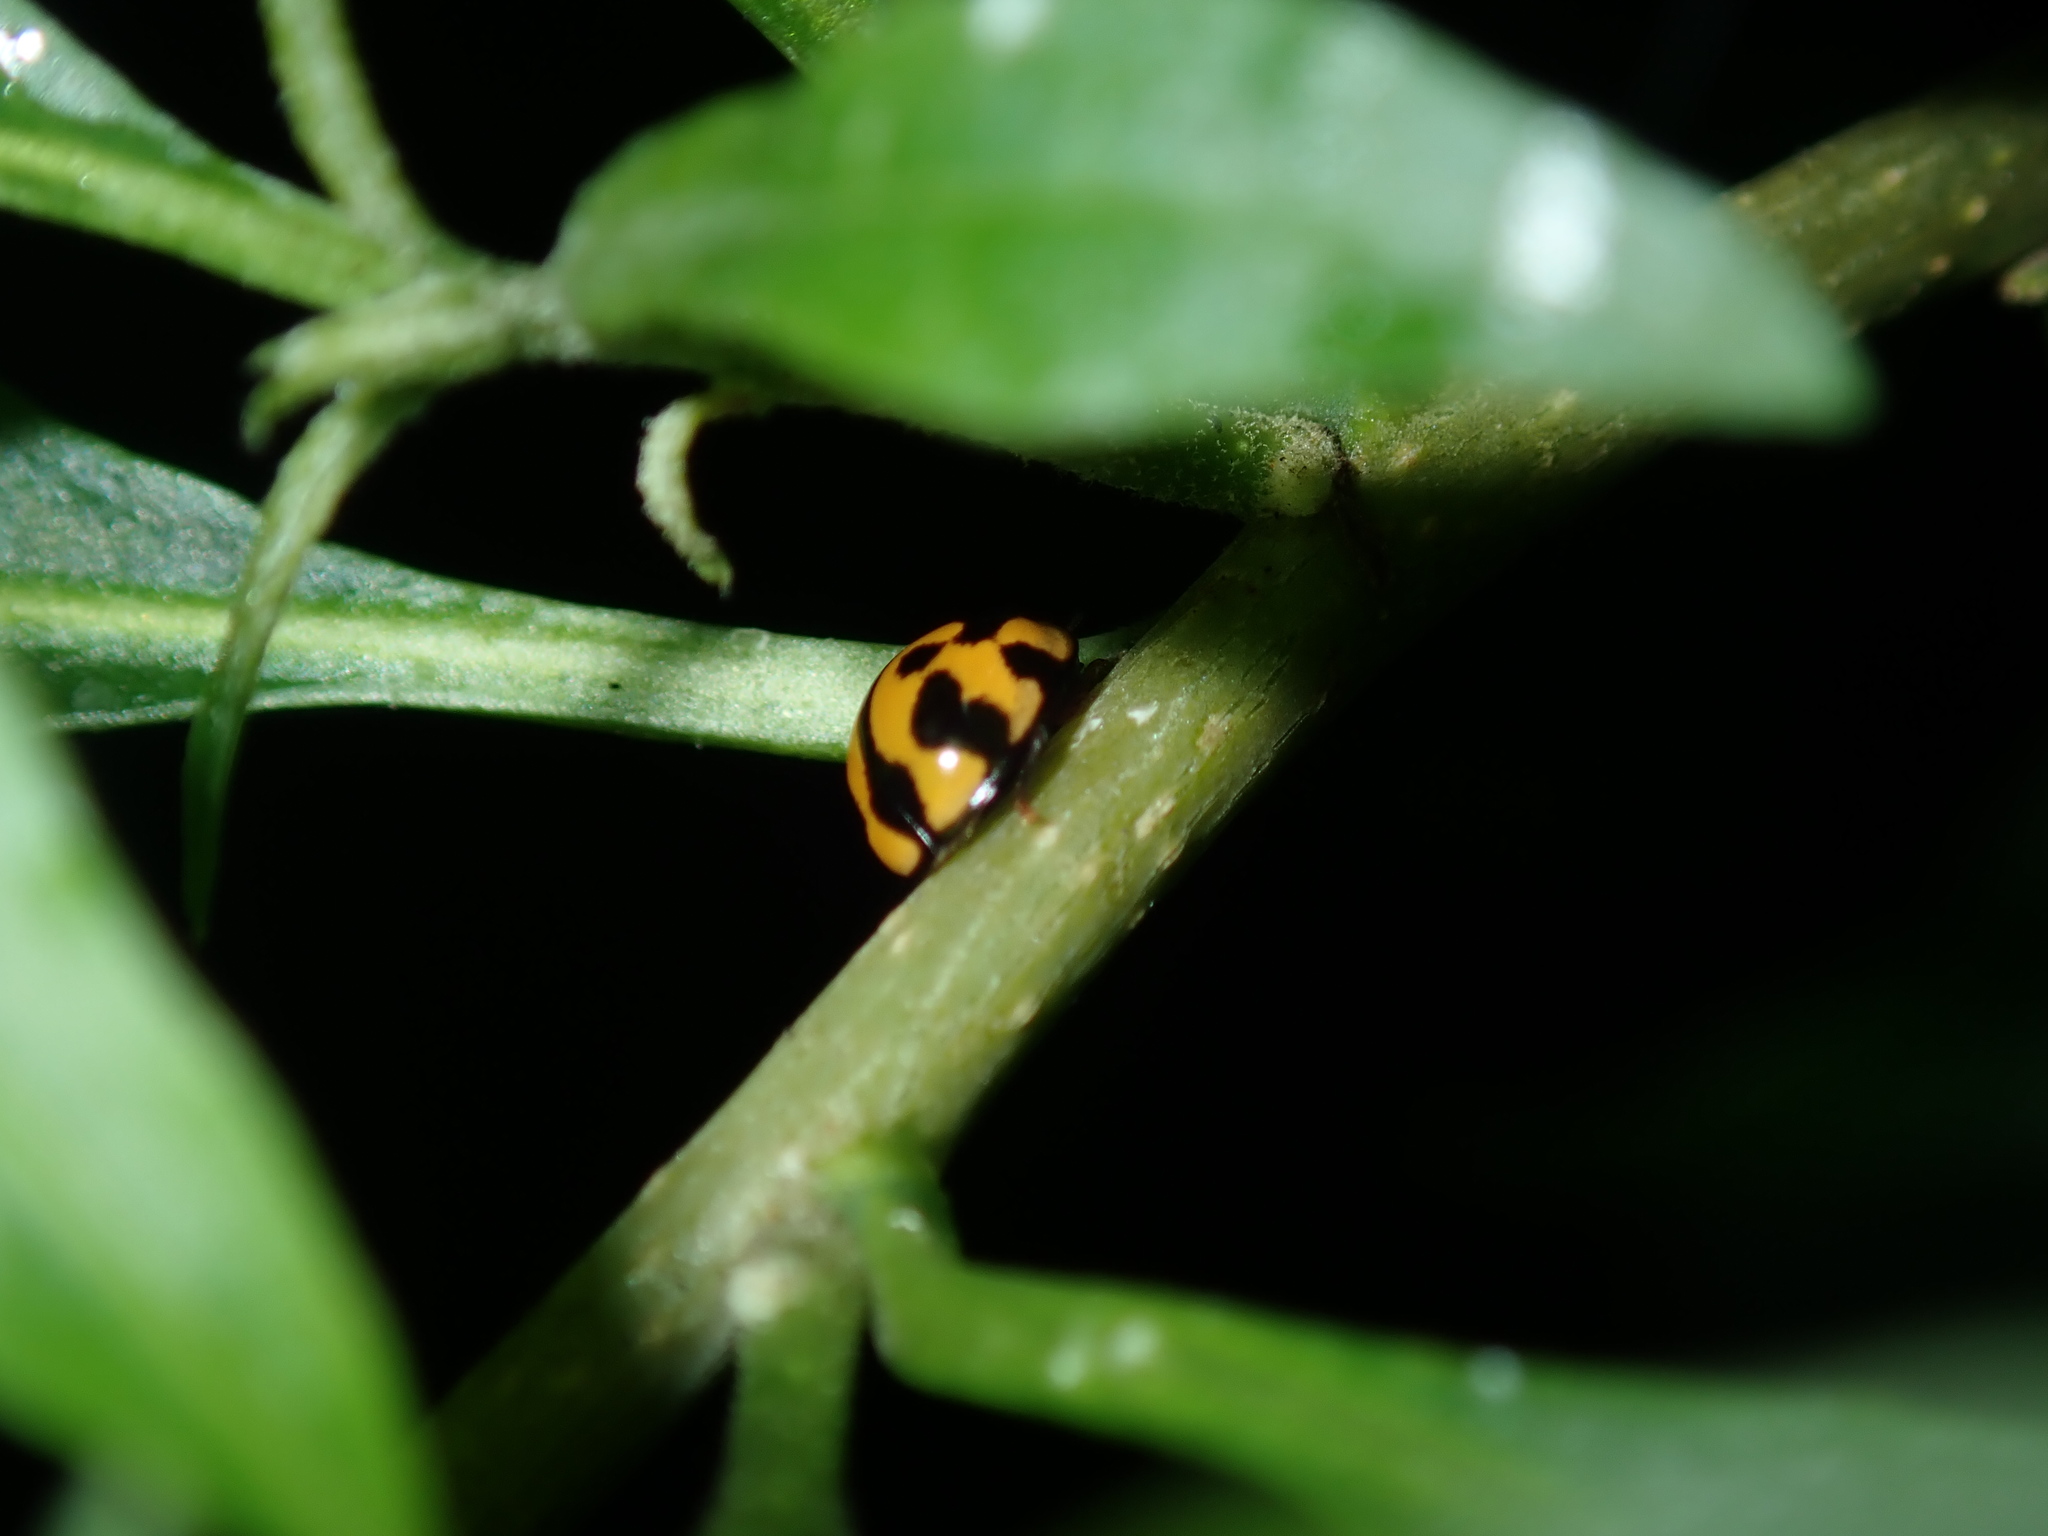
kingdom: Animalia
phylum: Arthropoda
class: Insecta
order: Coleoptera
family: Coccinellidae
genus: Coelophora
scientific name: Coelophora inaequalis
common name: Common australian lady beetle
